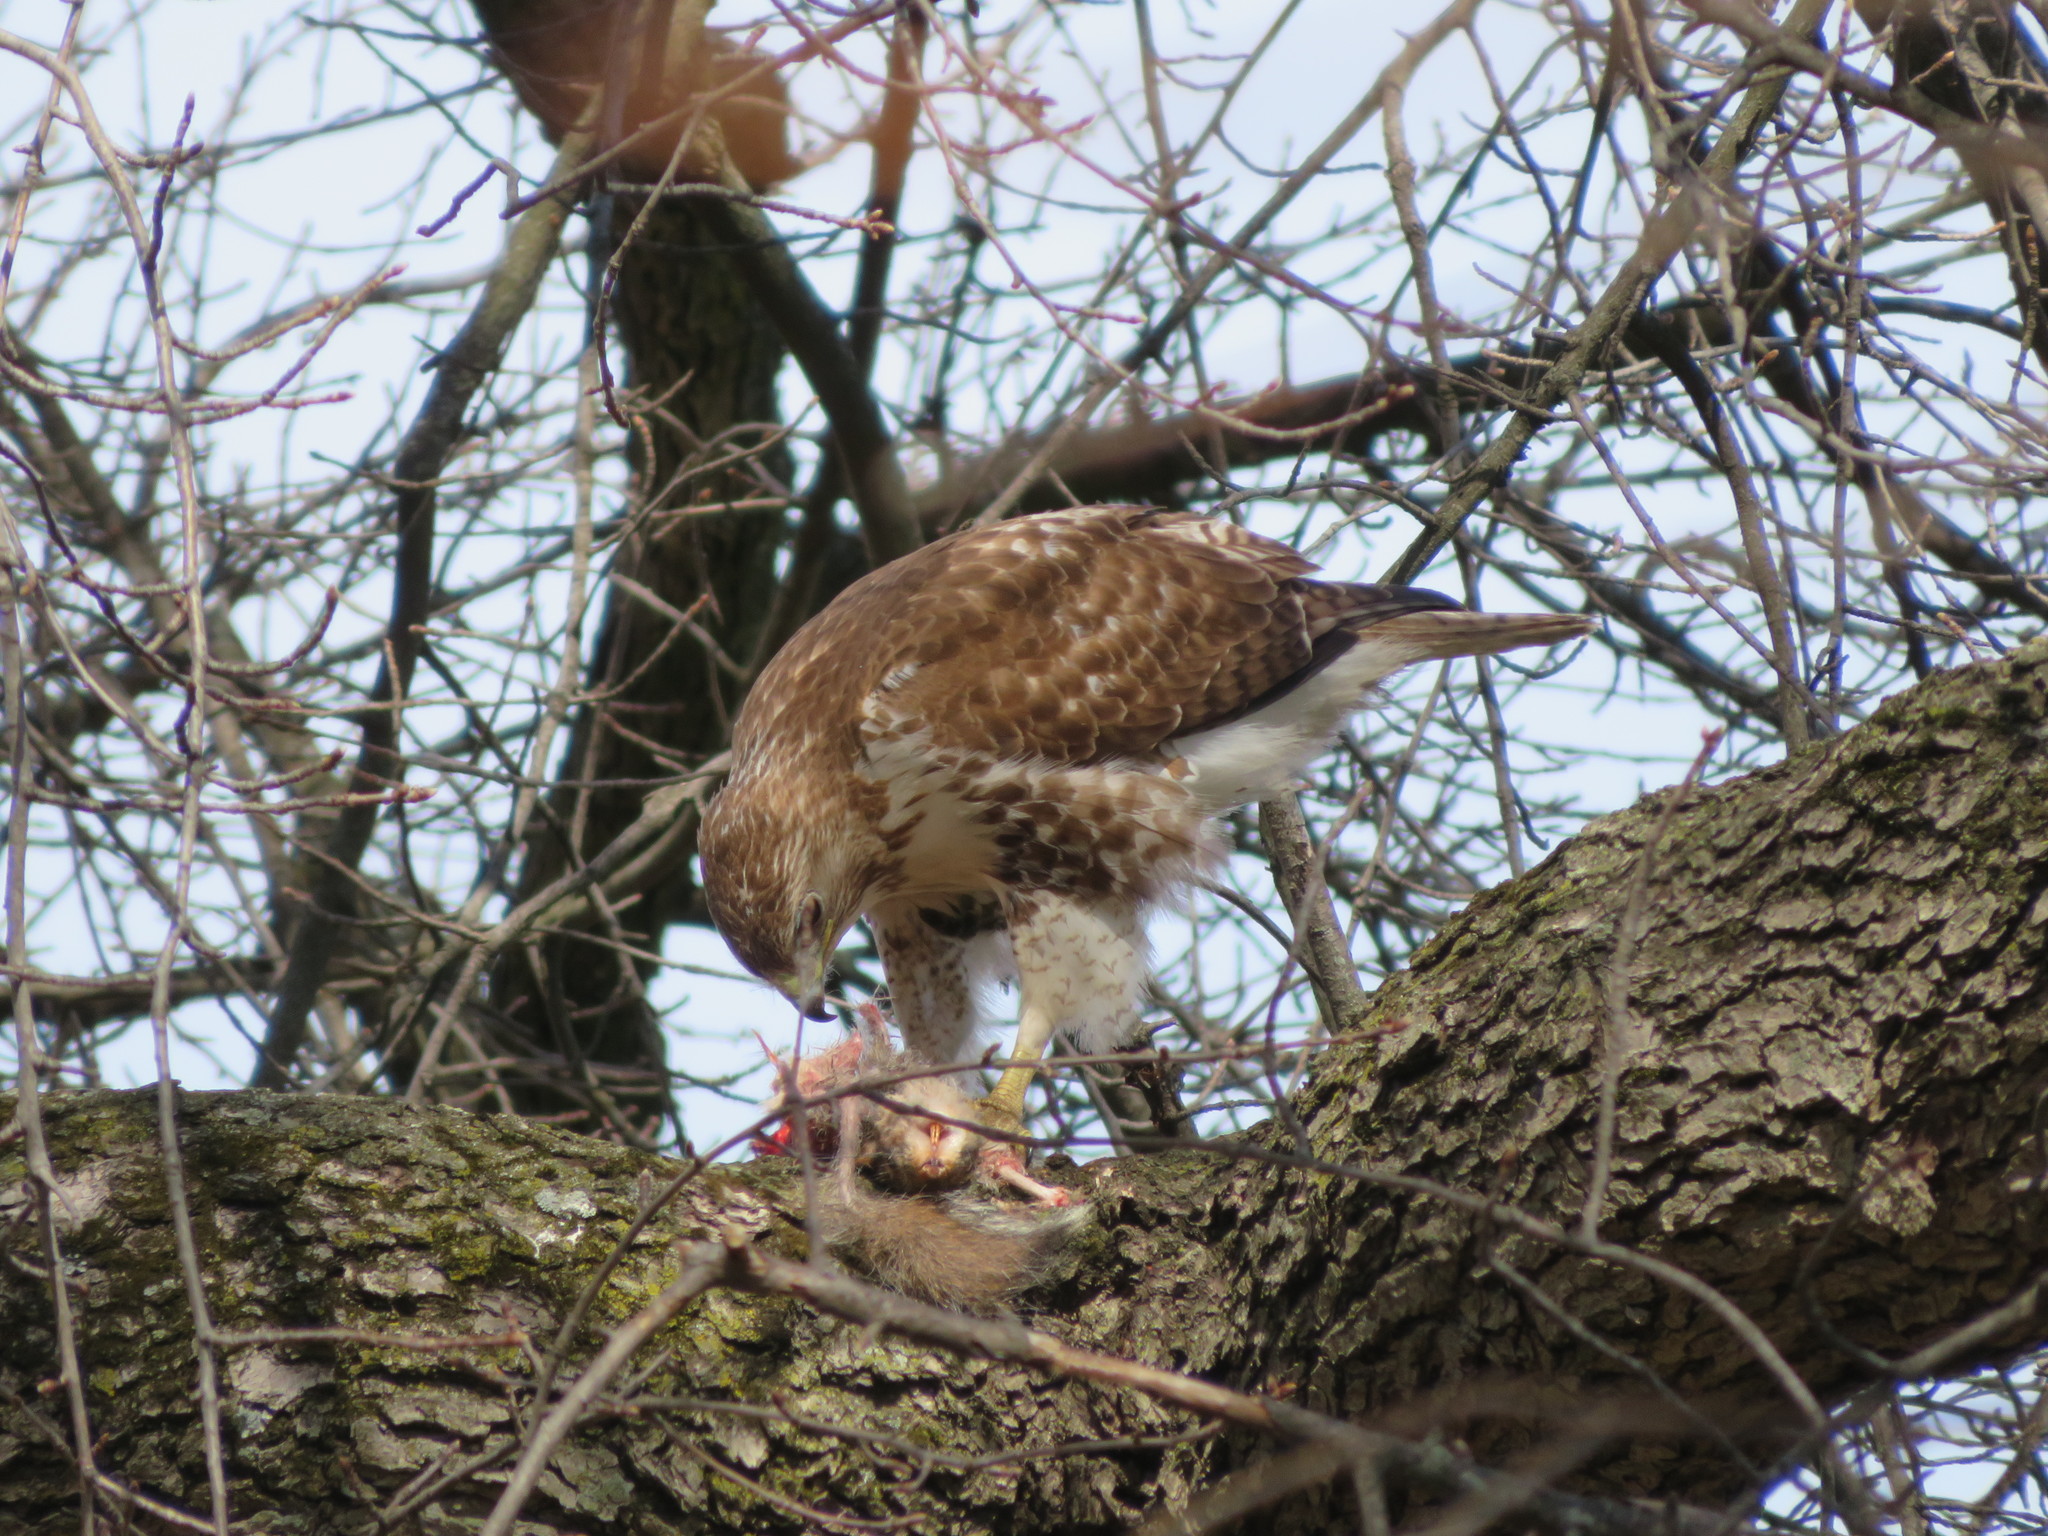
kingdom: Animalia
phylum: Chordata
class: Aves
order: Accipitriformes
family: Accipitridae
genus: Buteo
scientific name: Buteo jamaicensis
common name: Red-tailed hawk
